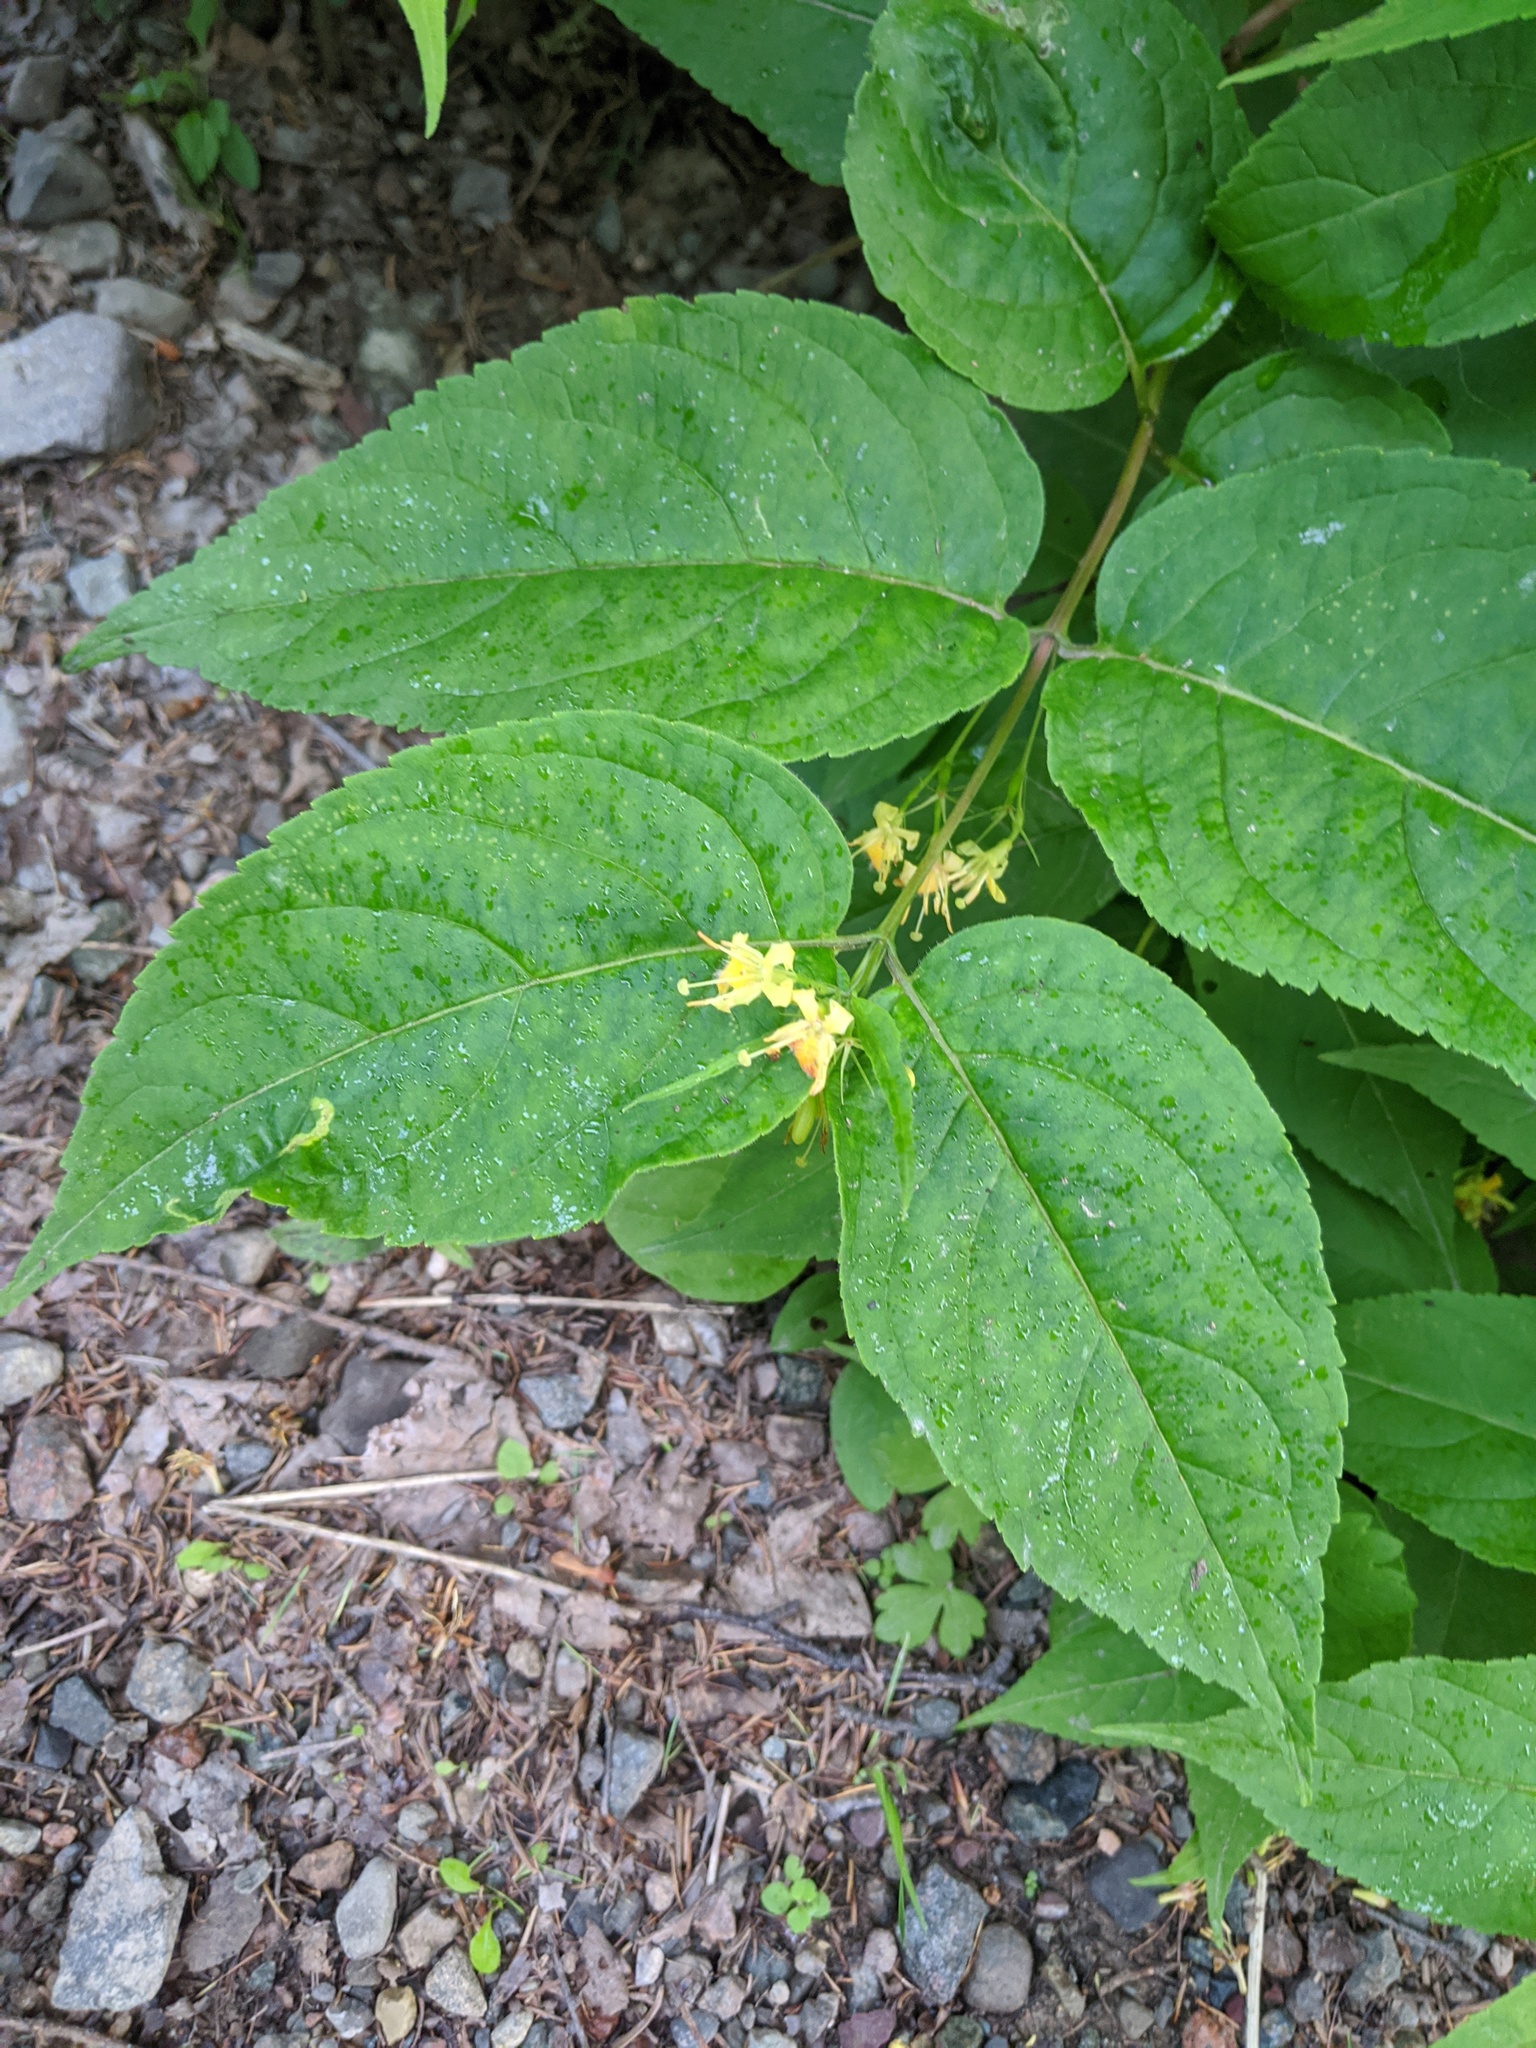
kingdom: Plantae
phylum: Tracheophyta
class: Magnoliopsida
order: Dipsacales
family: Caprifoliaceae
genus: Diervilla
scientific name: Diervilla lonicera
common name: Bush-honeysuckle
